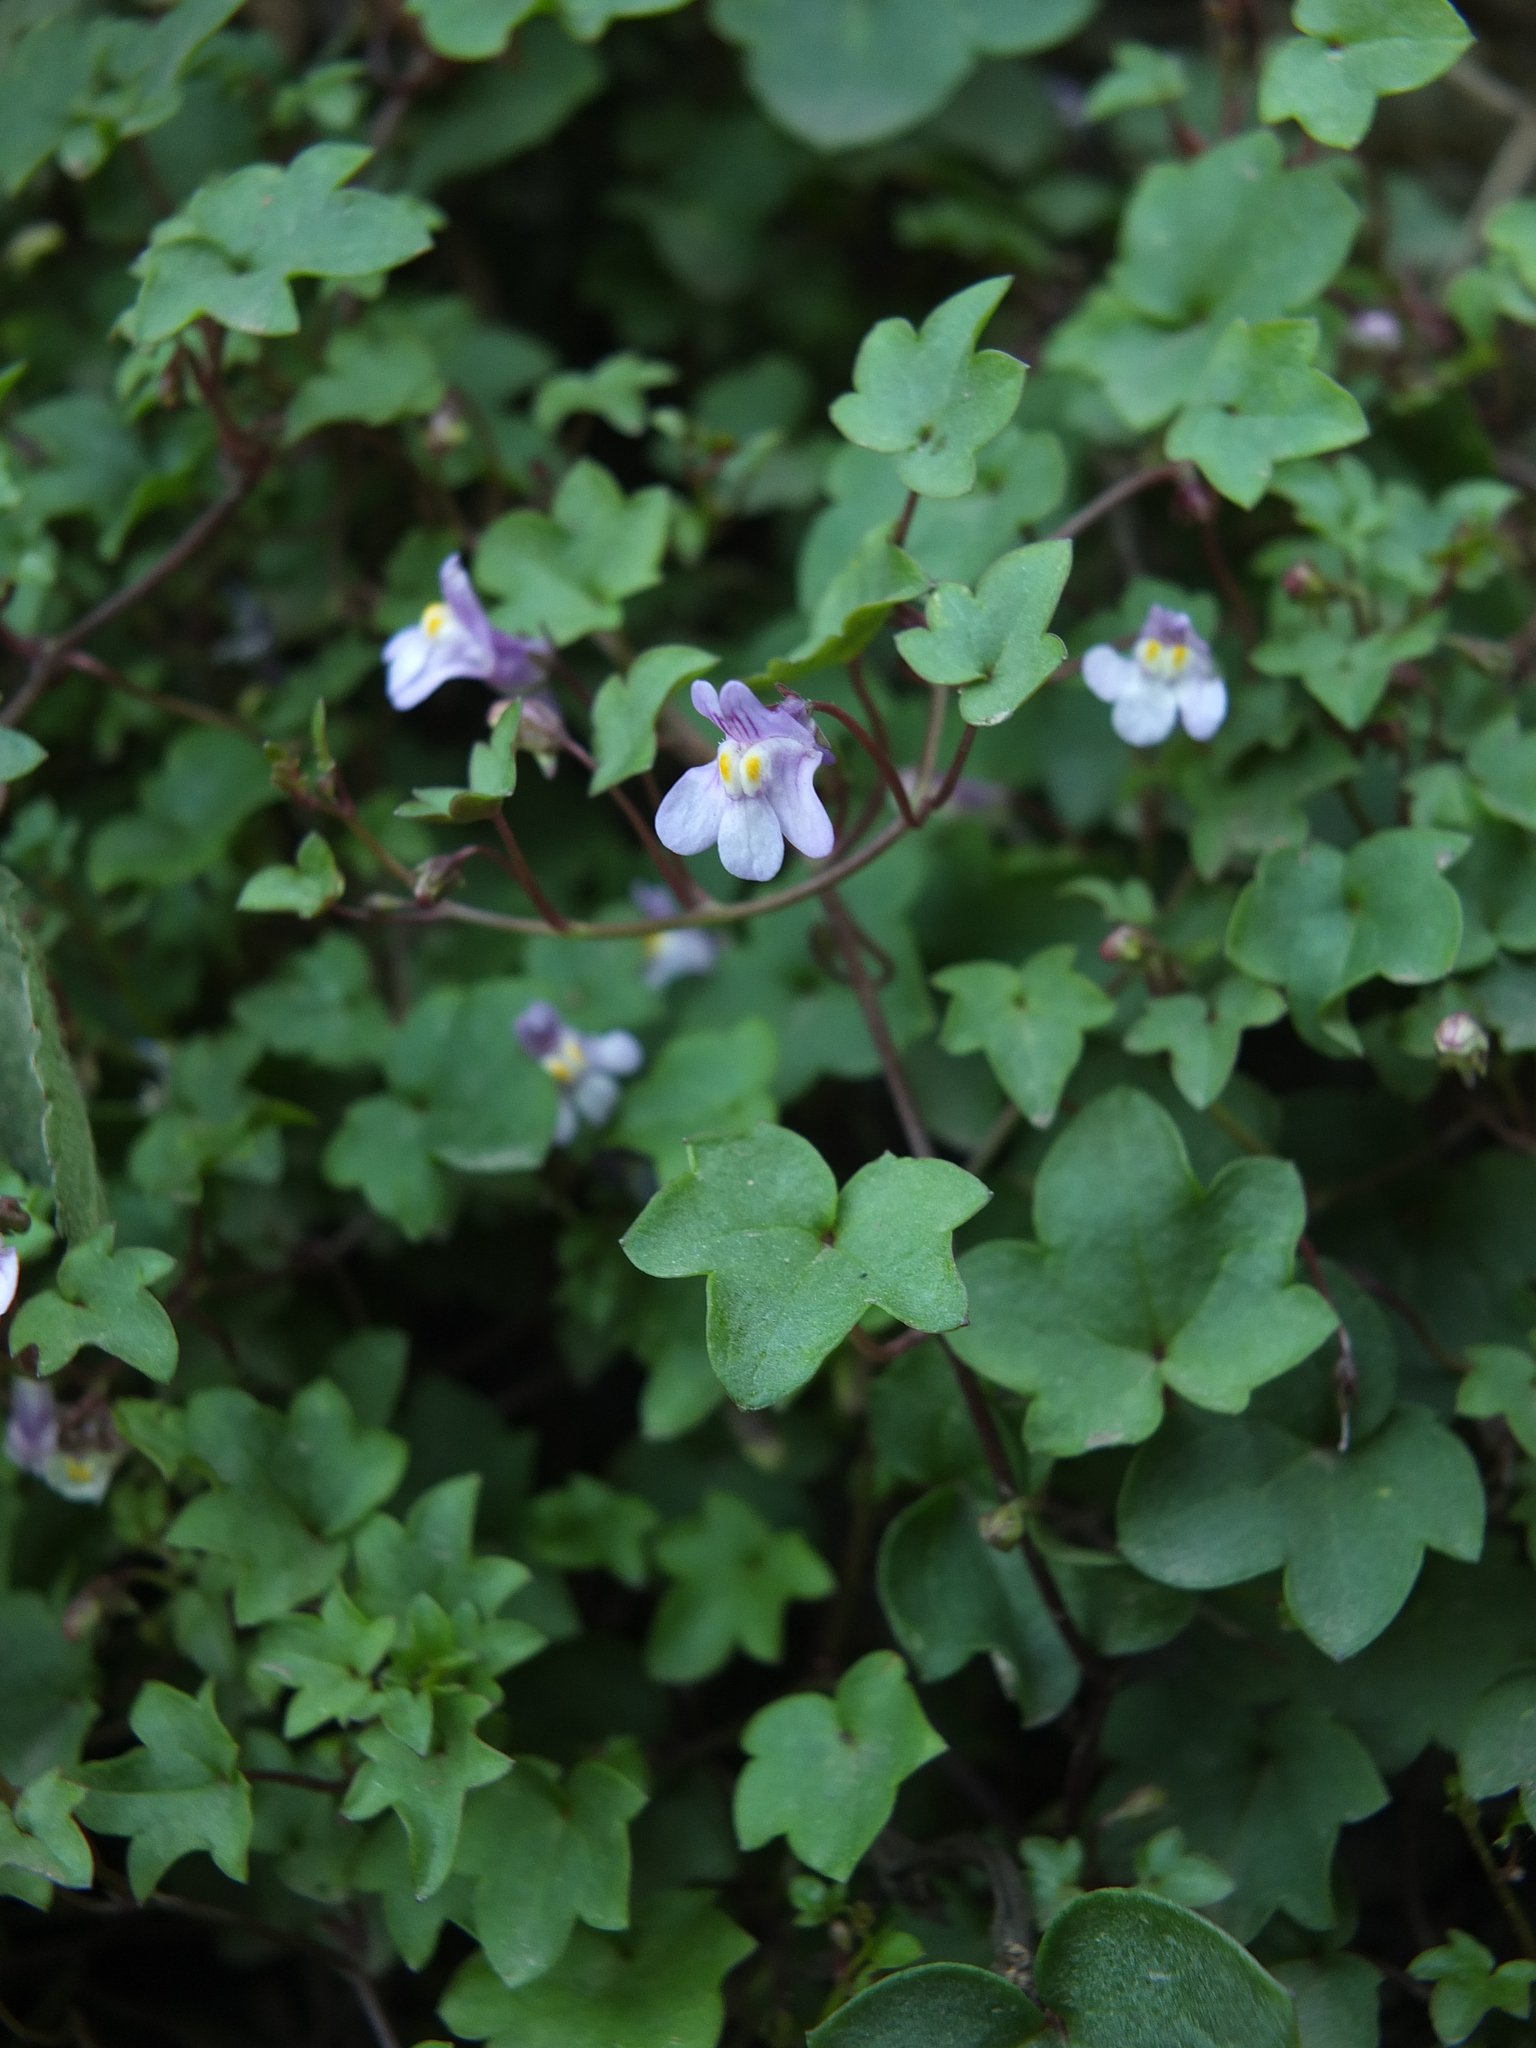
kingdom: Plantae
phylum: Tracheophyta
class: Magnoliopsida
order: Lamiales
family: Plantaginaceae
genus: Cymbalaria
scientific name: Cymbalaria muralis
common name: Ivy-leaved toadflax
